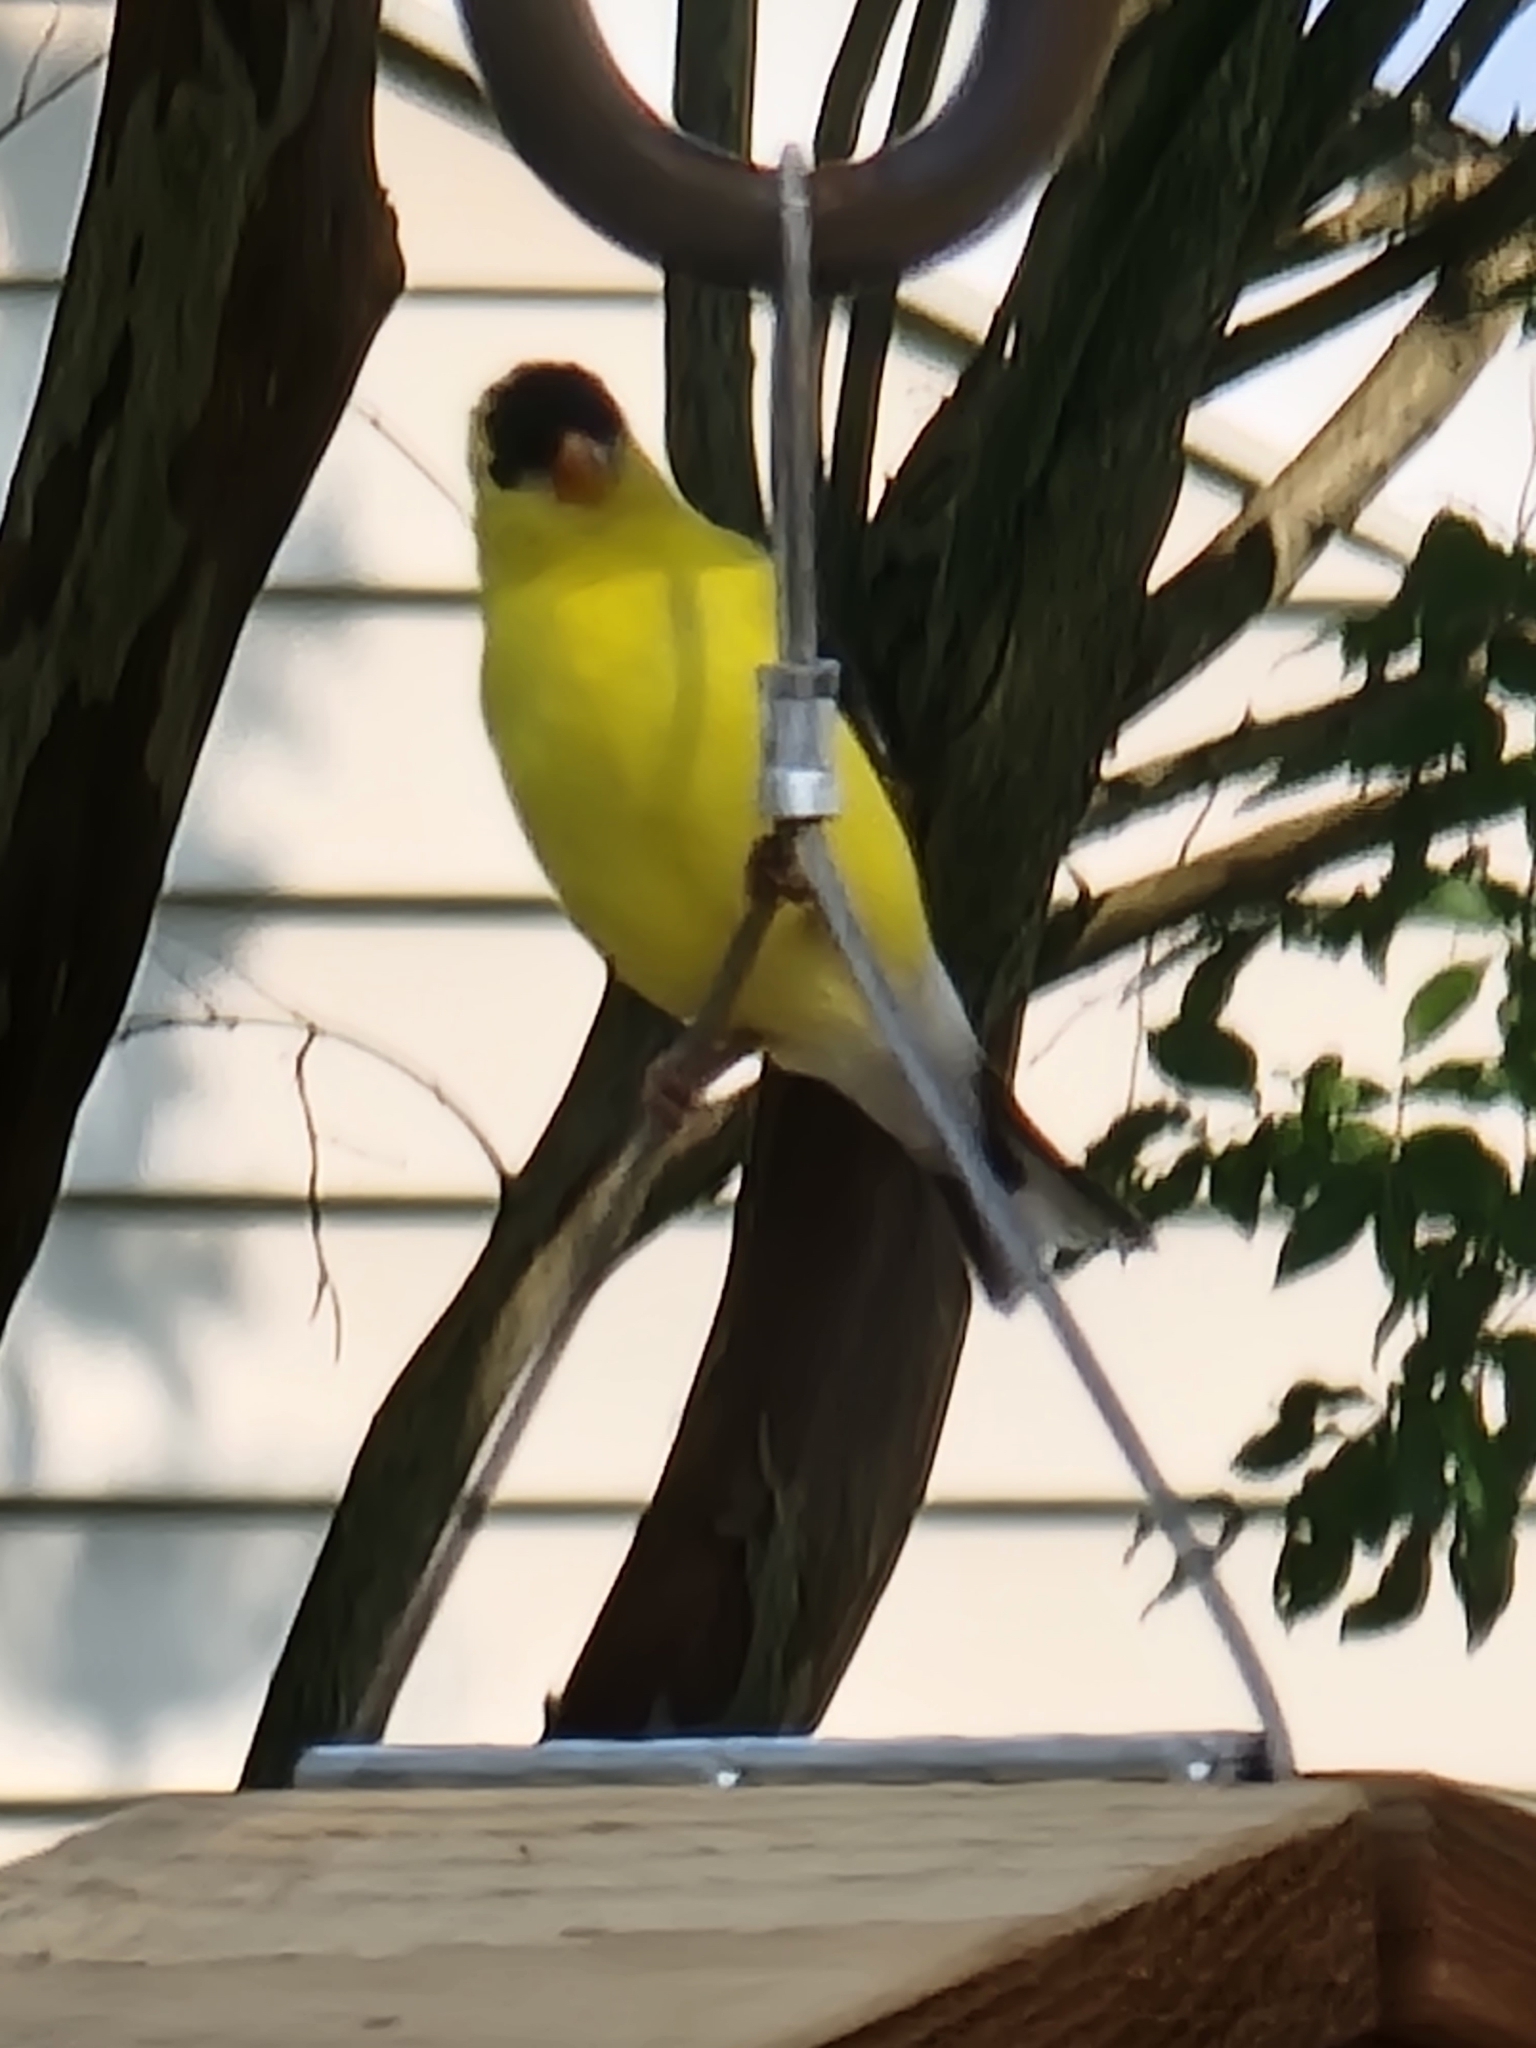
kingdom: Animalia
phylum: Chordata
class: Aves
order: Passeriformes
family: Fringillidae
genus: Spinus
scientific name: Spinus tristis
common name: American goldfinch
